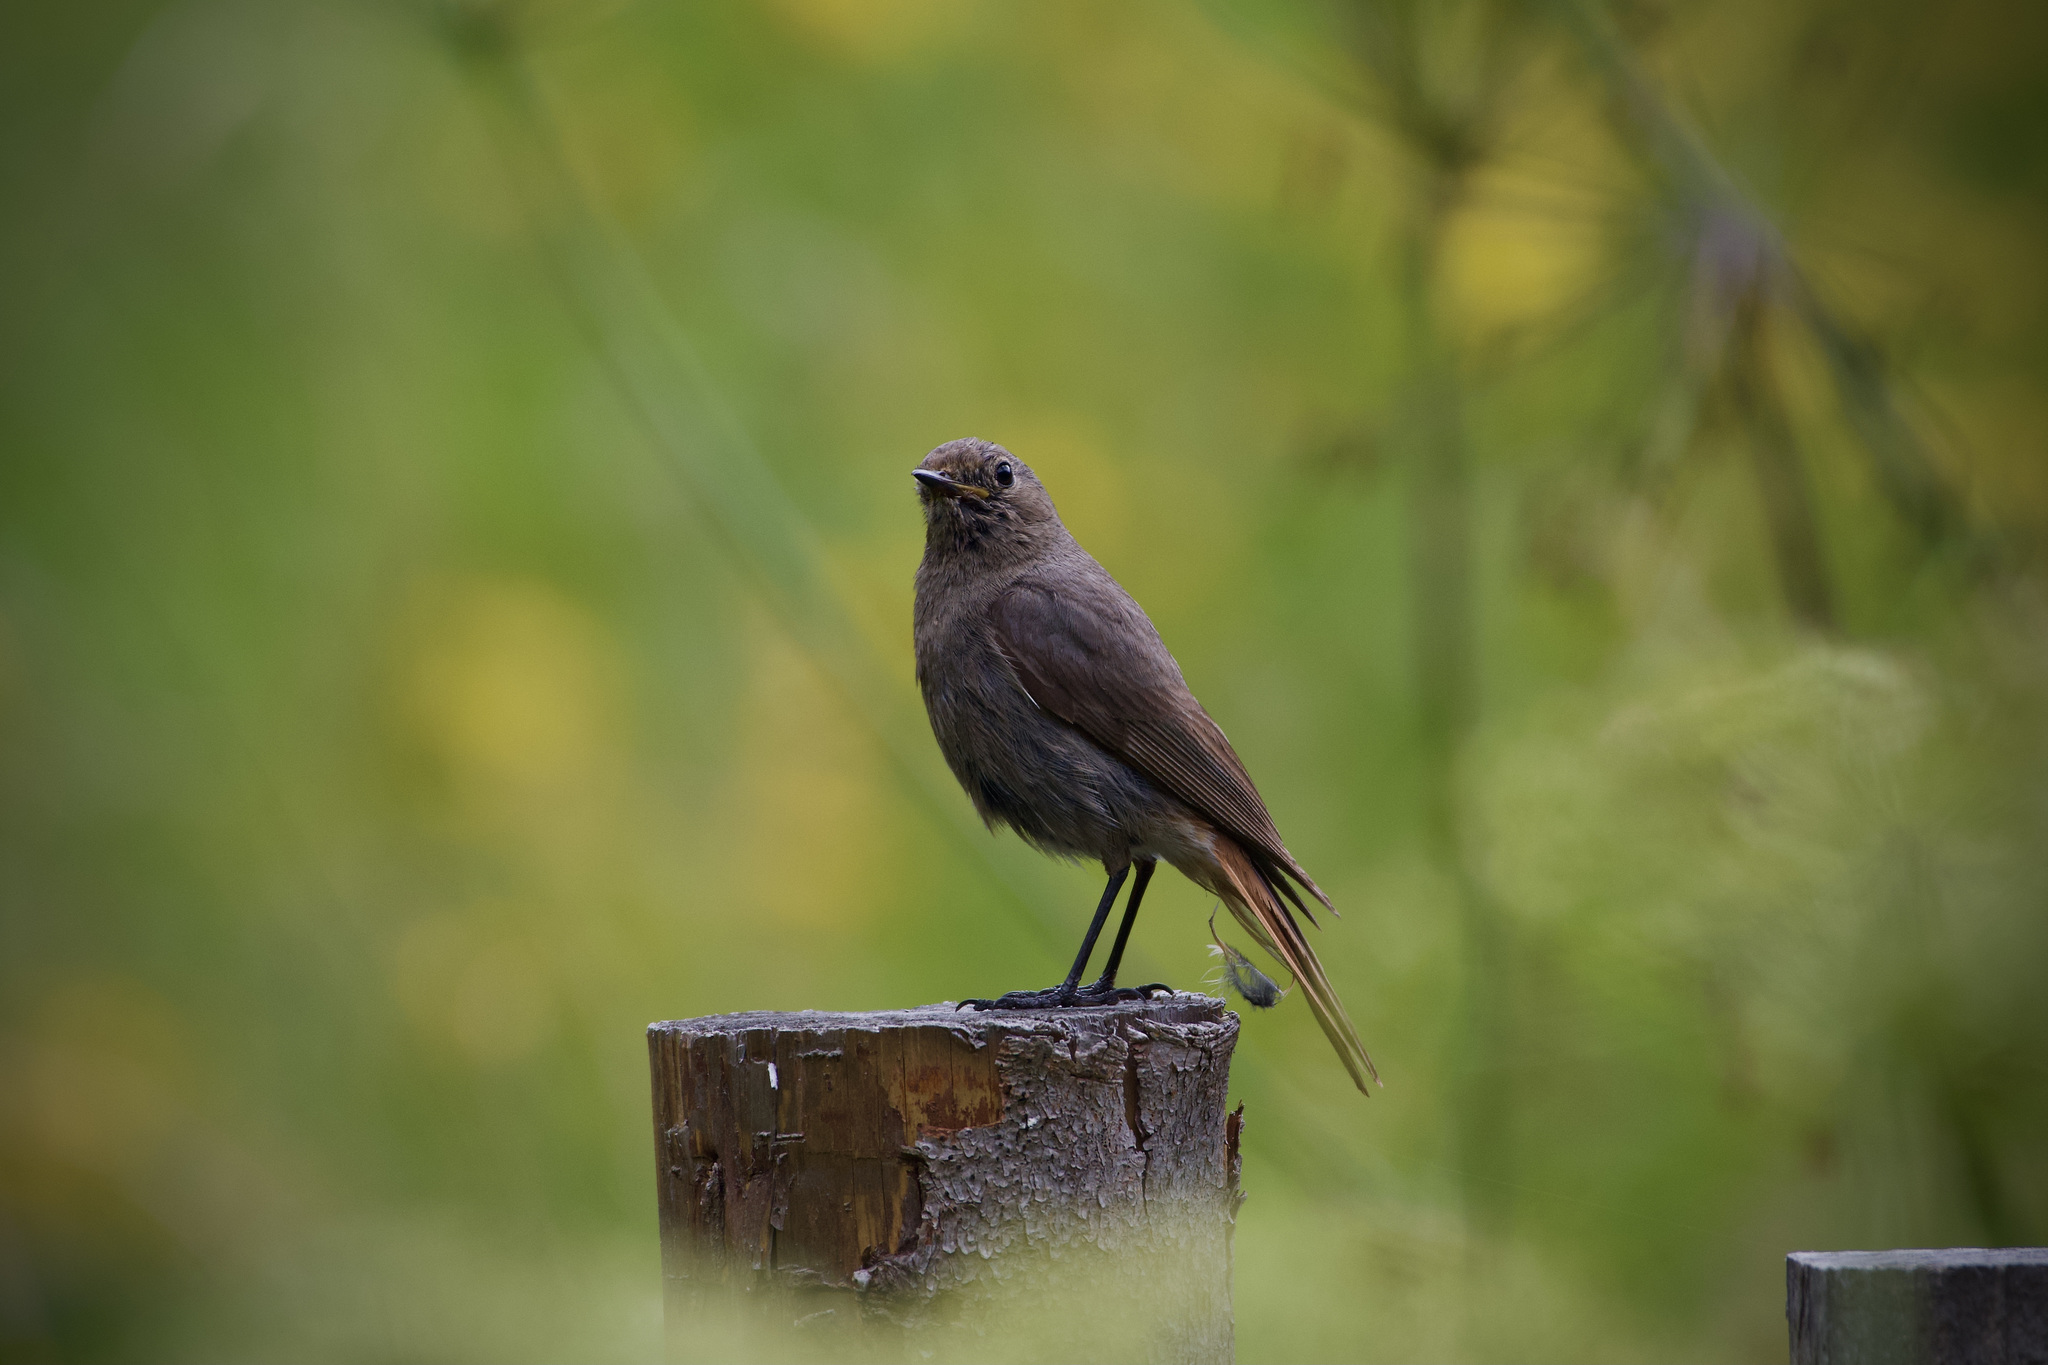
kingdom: Animalia
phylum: Chordata
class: Aves
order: Passeriformes
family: Muscicapidae
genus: Phoenicurus
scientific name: Phoenicurus ochruros
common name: Black redstart
